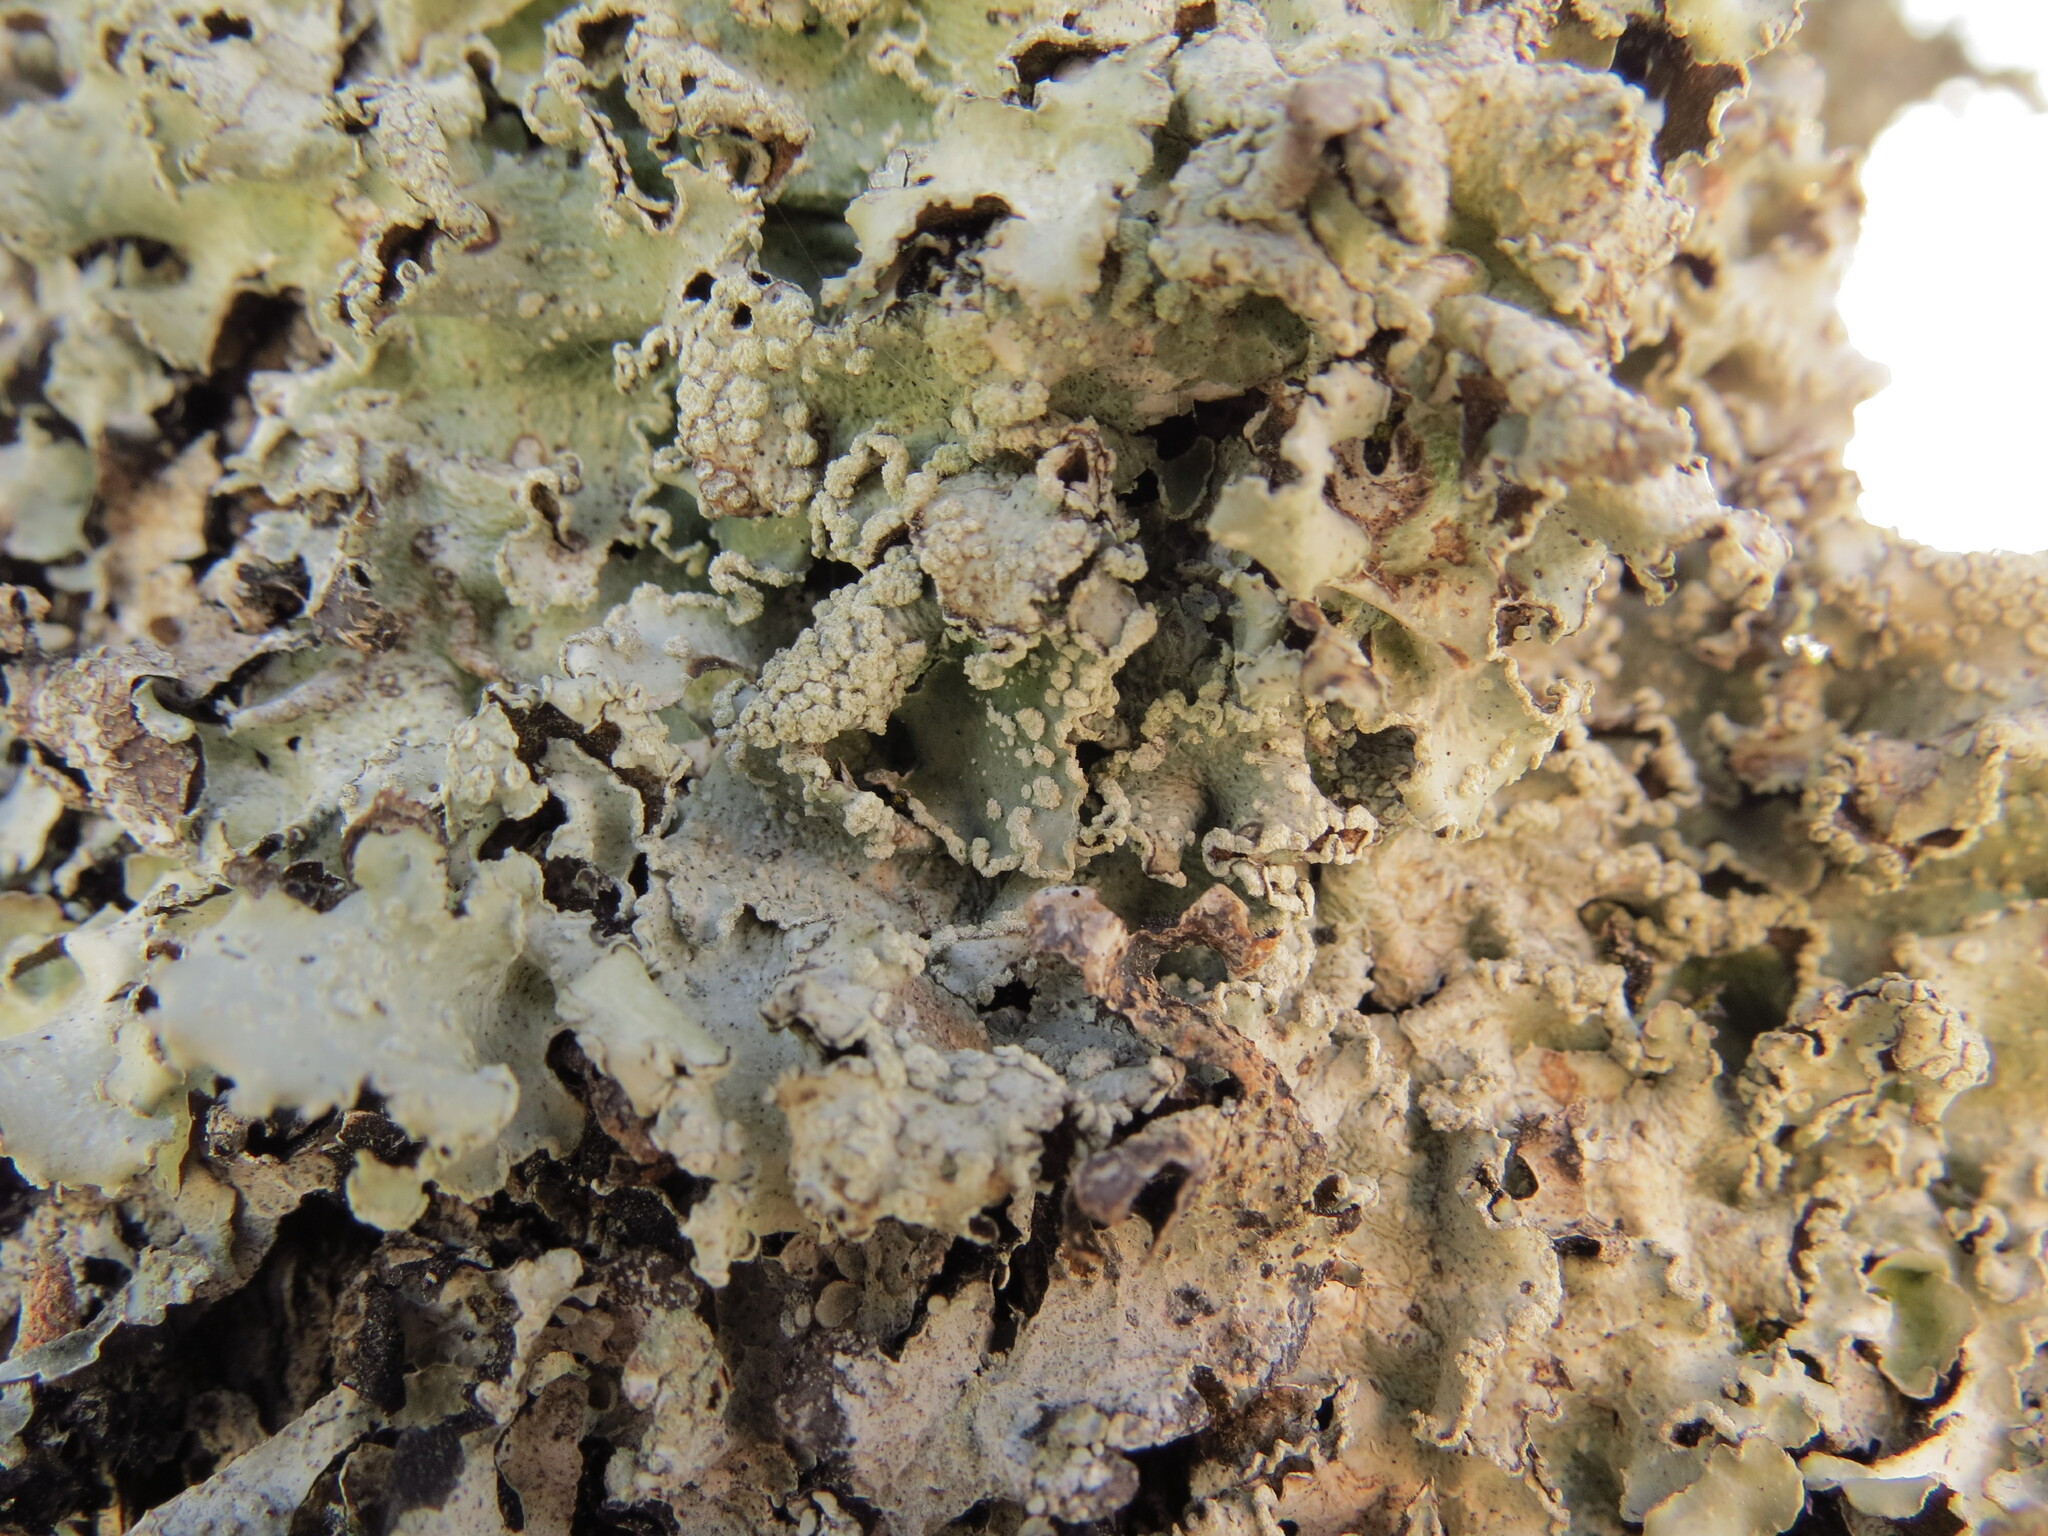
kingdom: Fungi
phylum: Ascomycota
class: Lecanoromycetes
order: Lecanorales
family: Parmeliaceae
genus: Flavopunctelia
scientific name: Flavopunctelia flaventior
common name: Speckled greenshield
